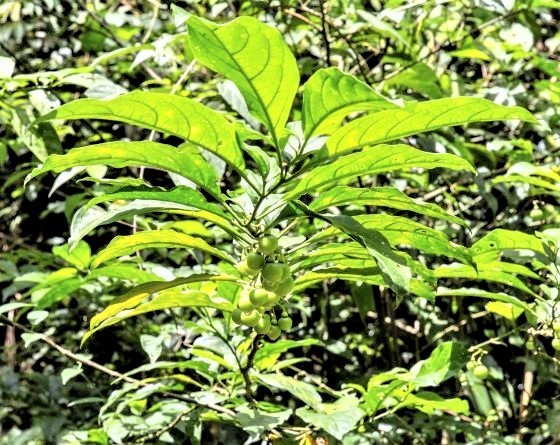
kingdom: Plantae
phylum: Tracheophyta
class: Magnoliopsida
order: Solanales
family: Solanaceae
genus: Solanum
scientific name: Solanum leucocarpon
